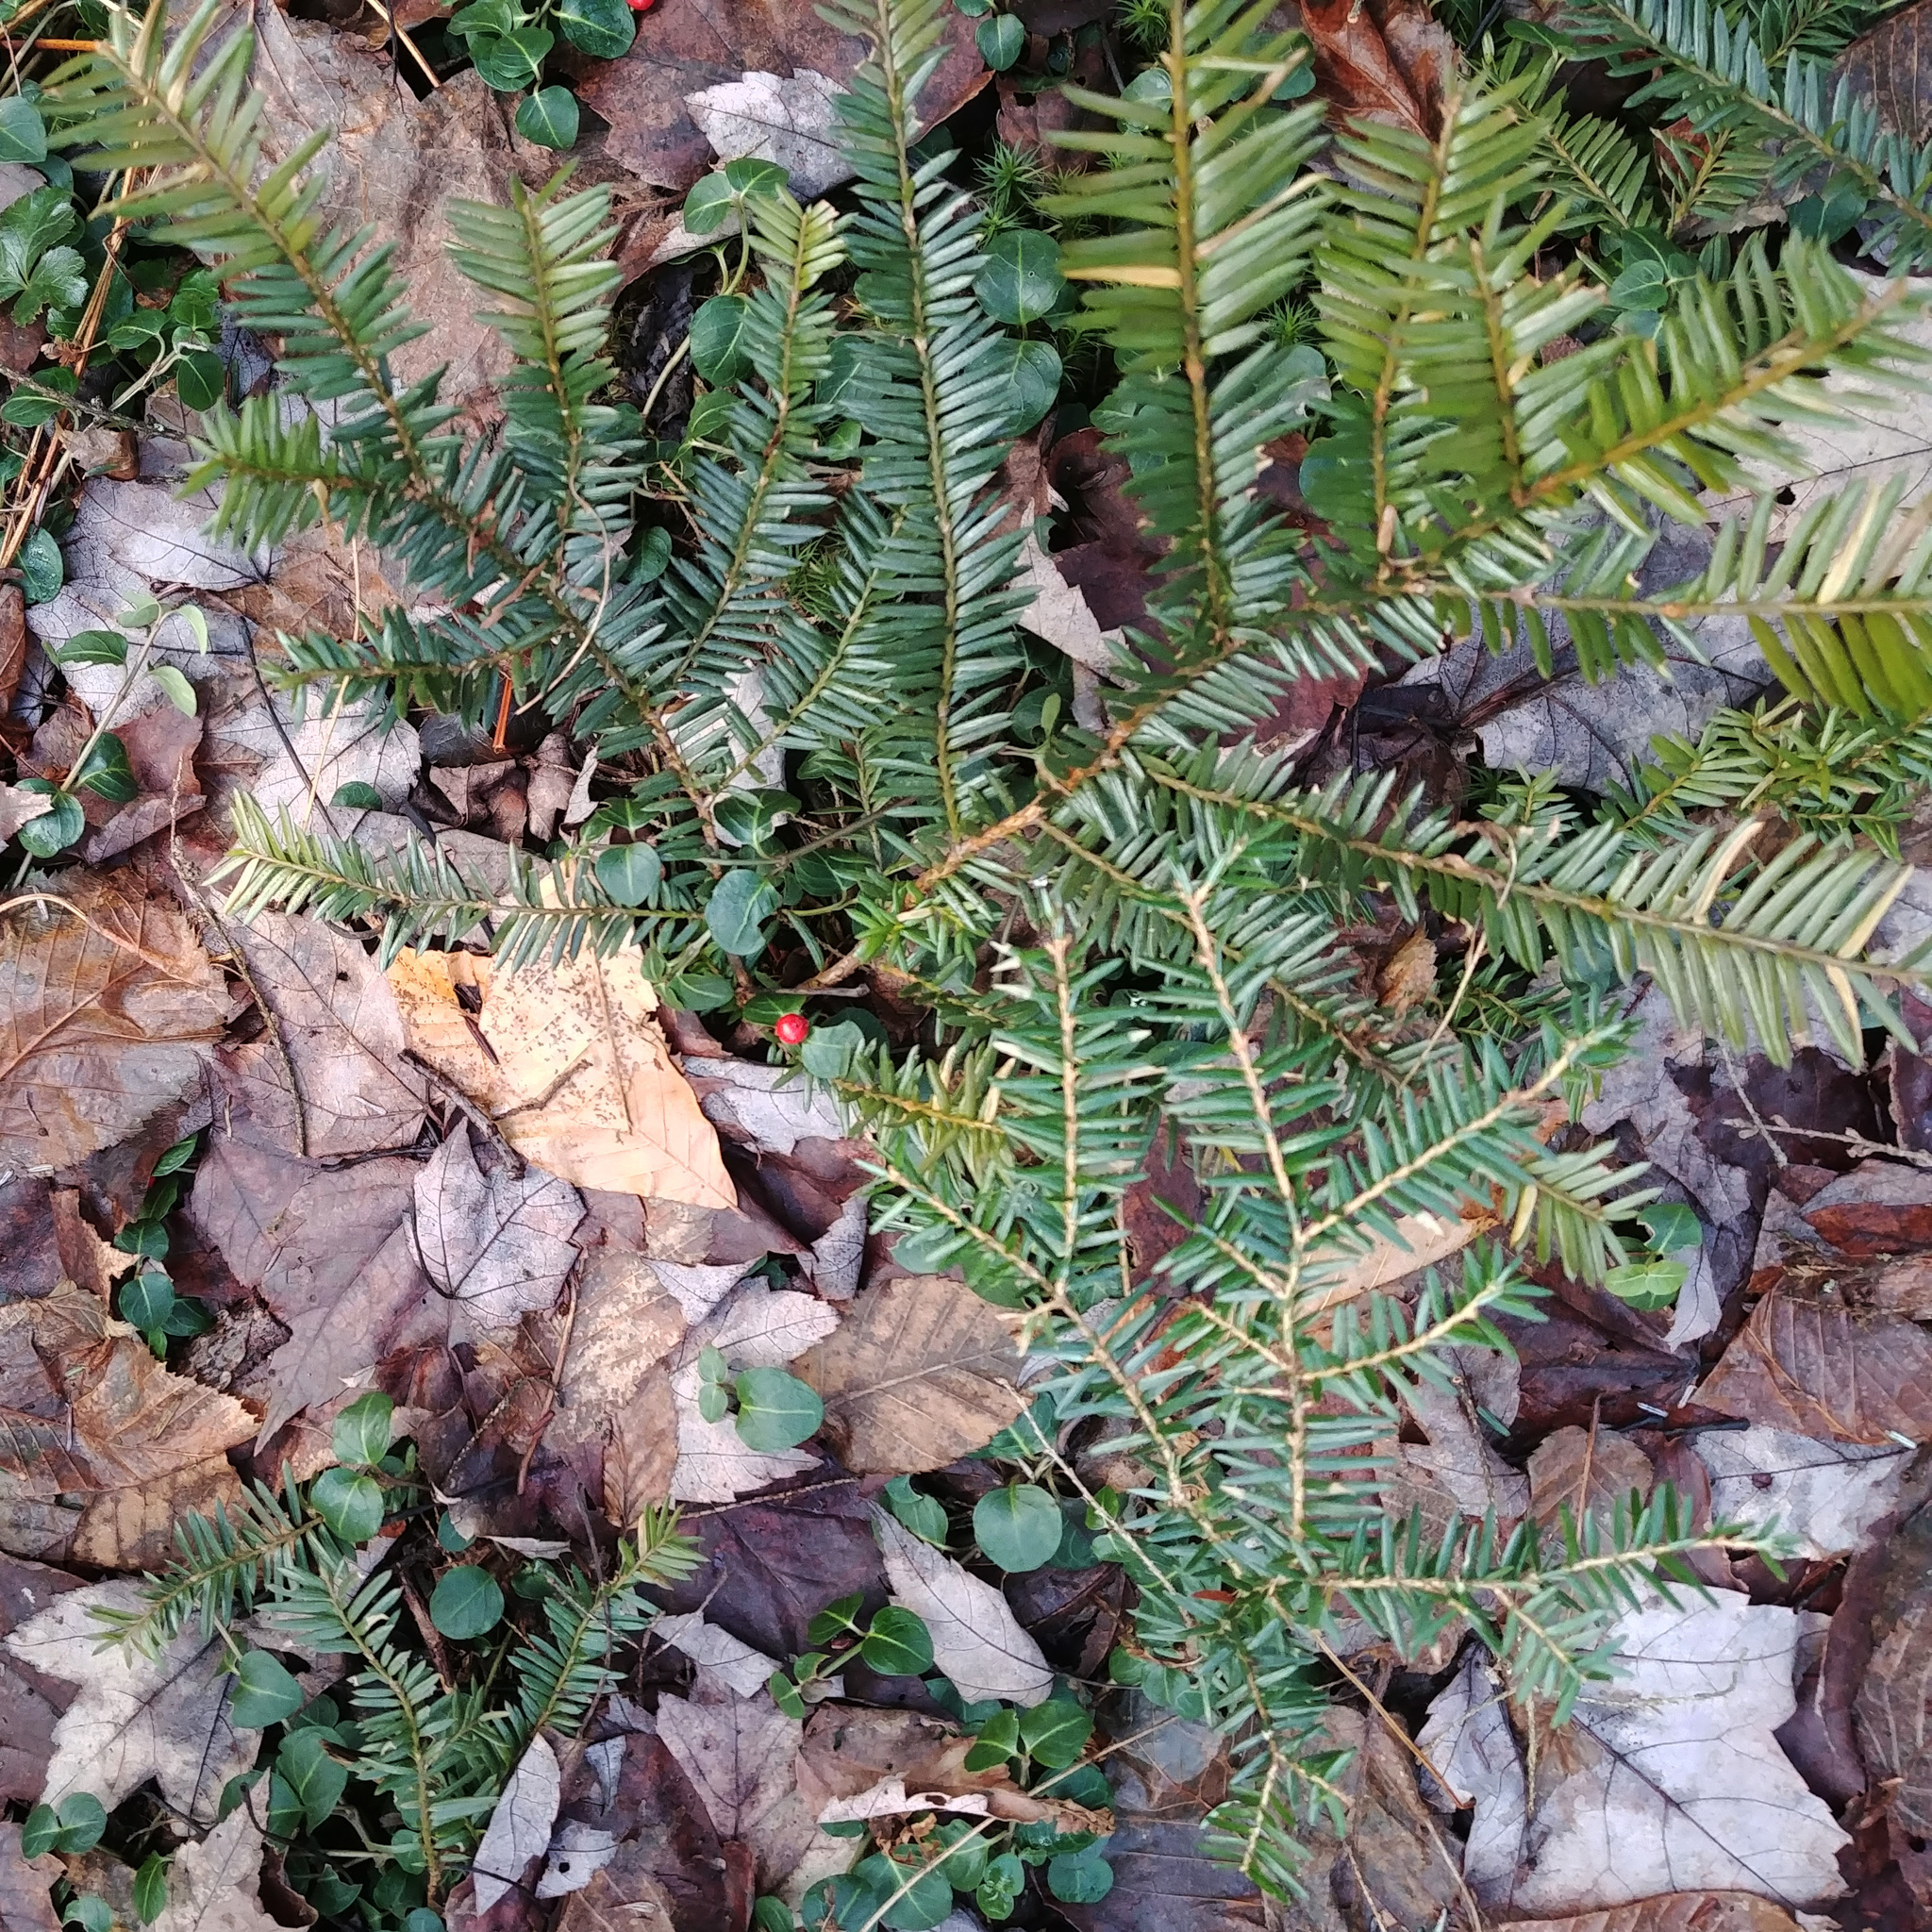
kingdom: Plantae
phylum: Tracheophyta
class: Pinopsida
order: Pinales
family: Taxaceae
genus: Taxus
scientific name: Taxus canadensis
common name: American yew
